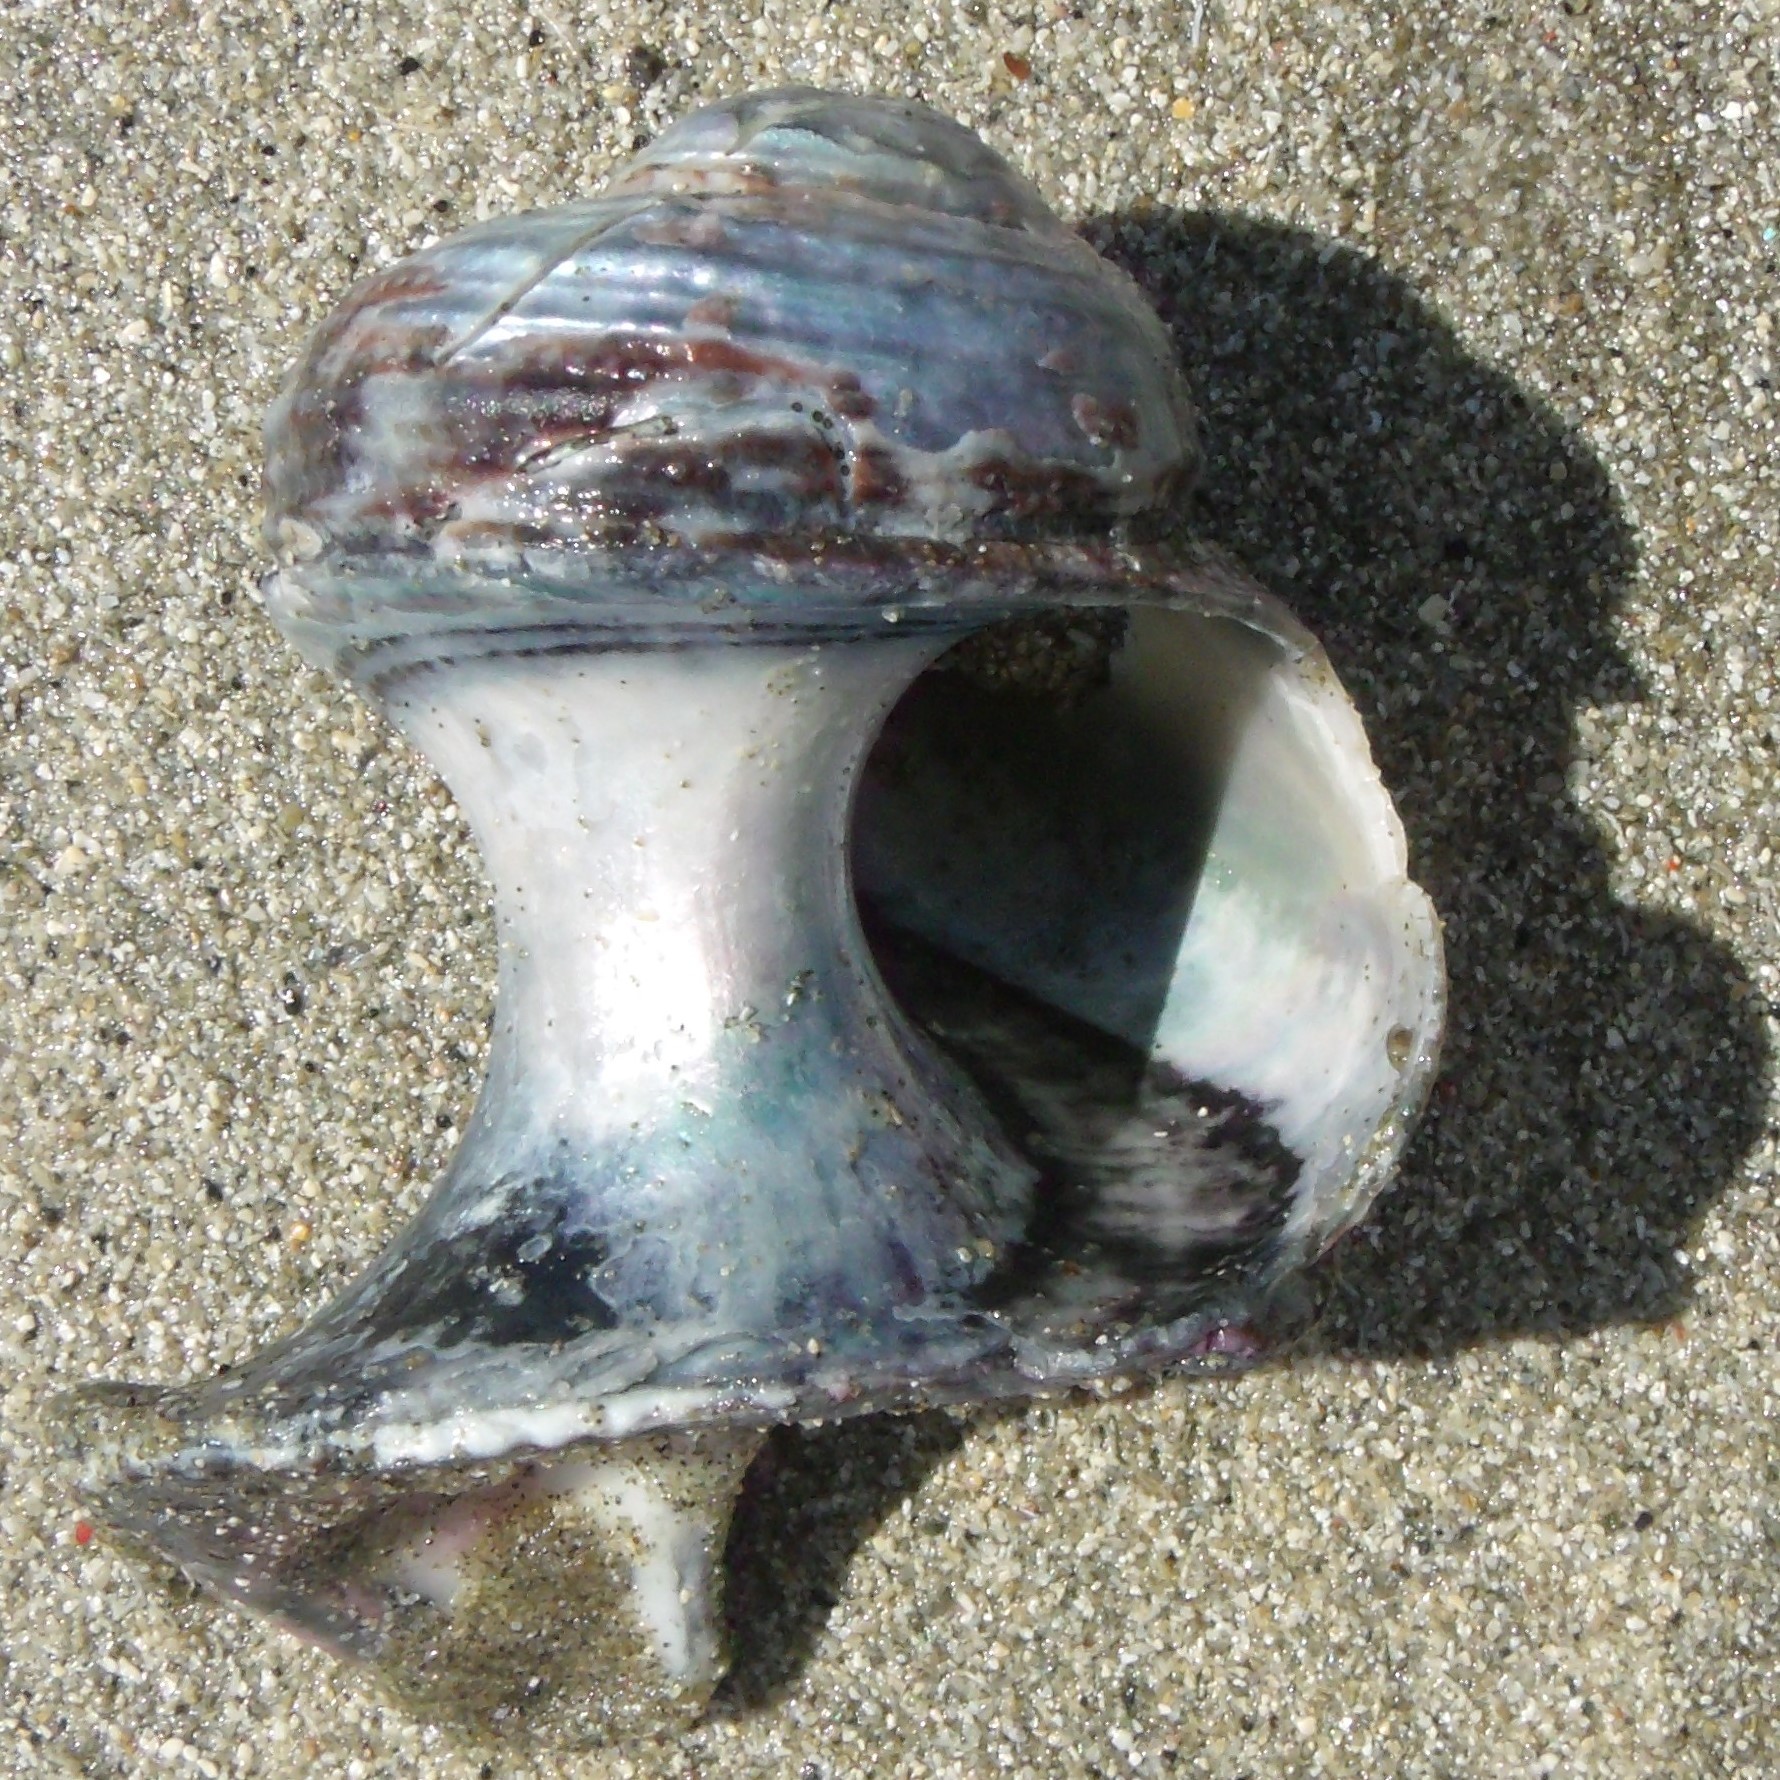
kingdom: Animalia
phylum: Mollusca
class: Gastropoda
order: Trochida
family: Turbinidae
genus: Modelia
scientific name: Modelia granosa
